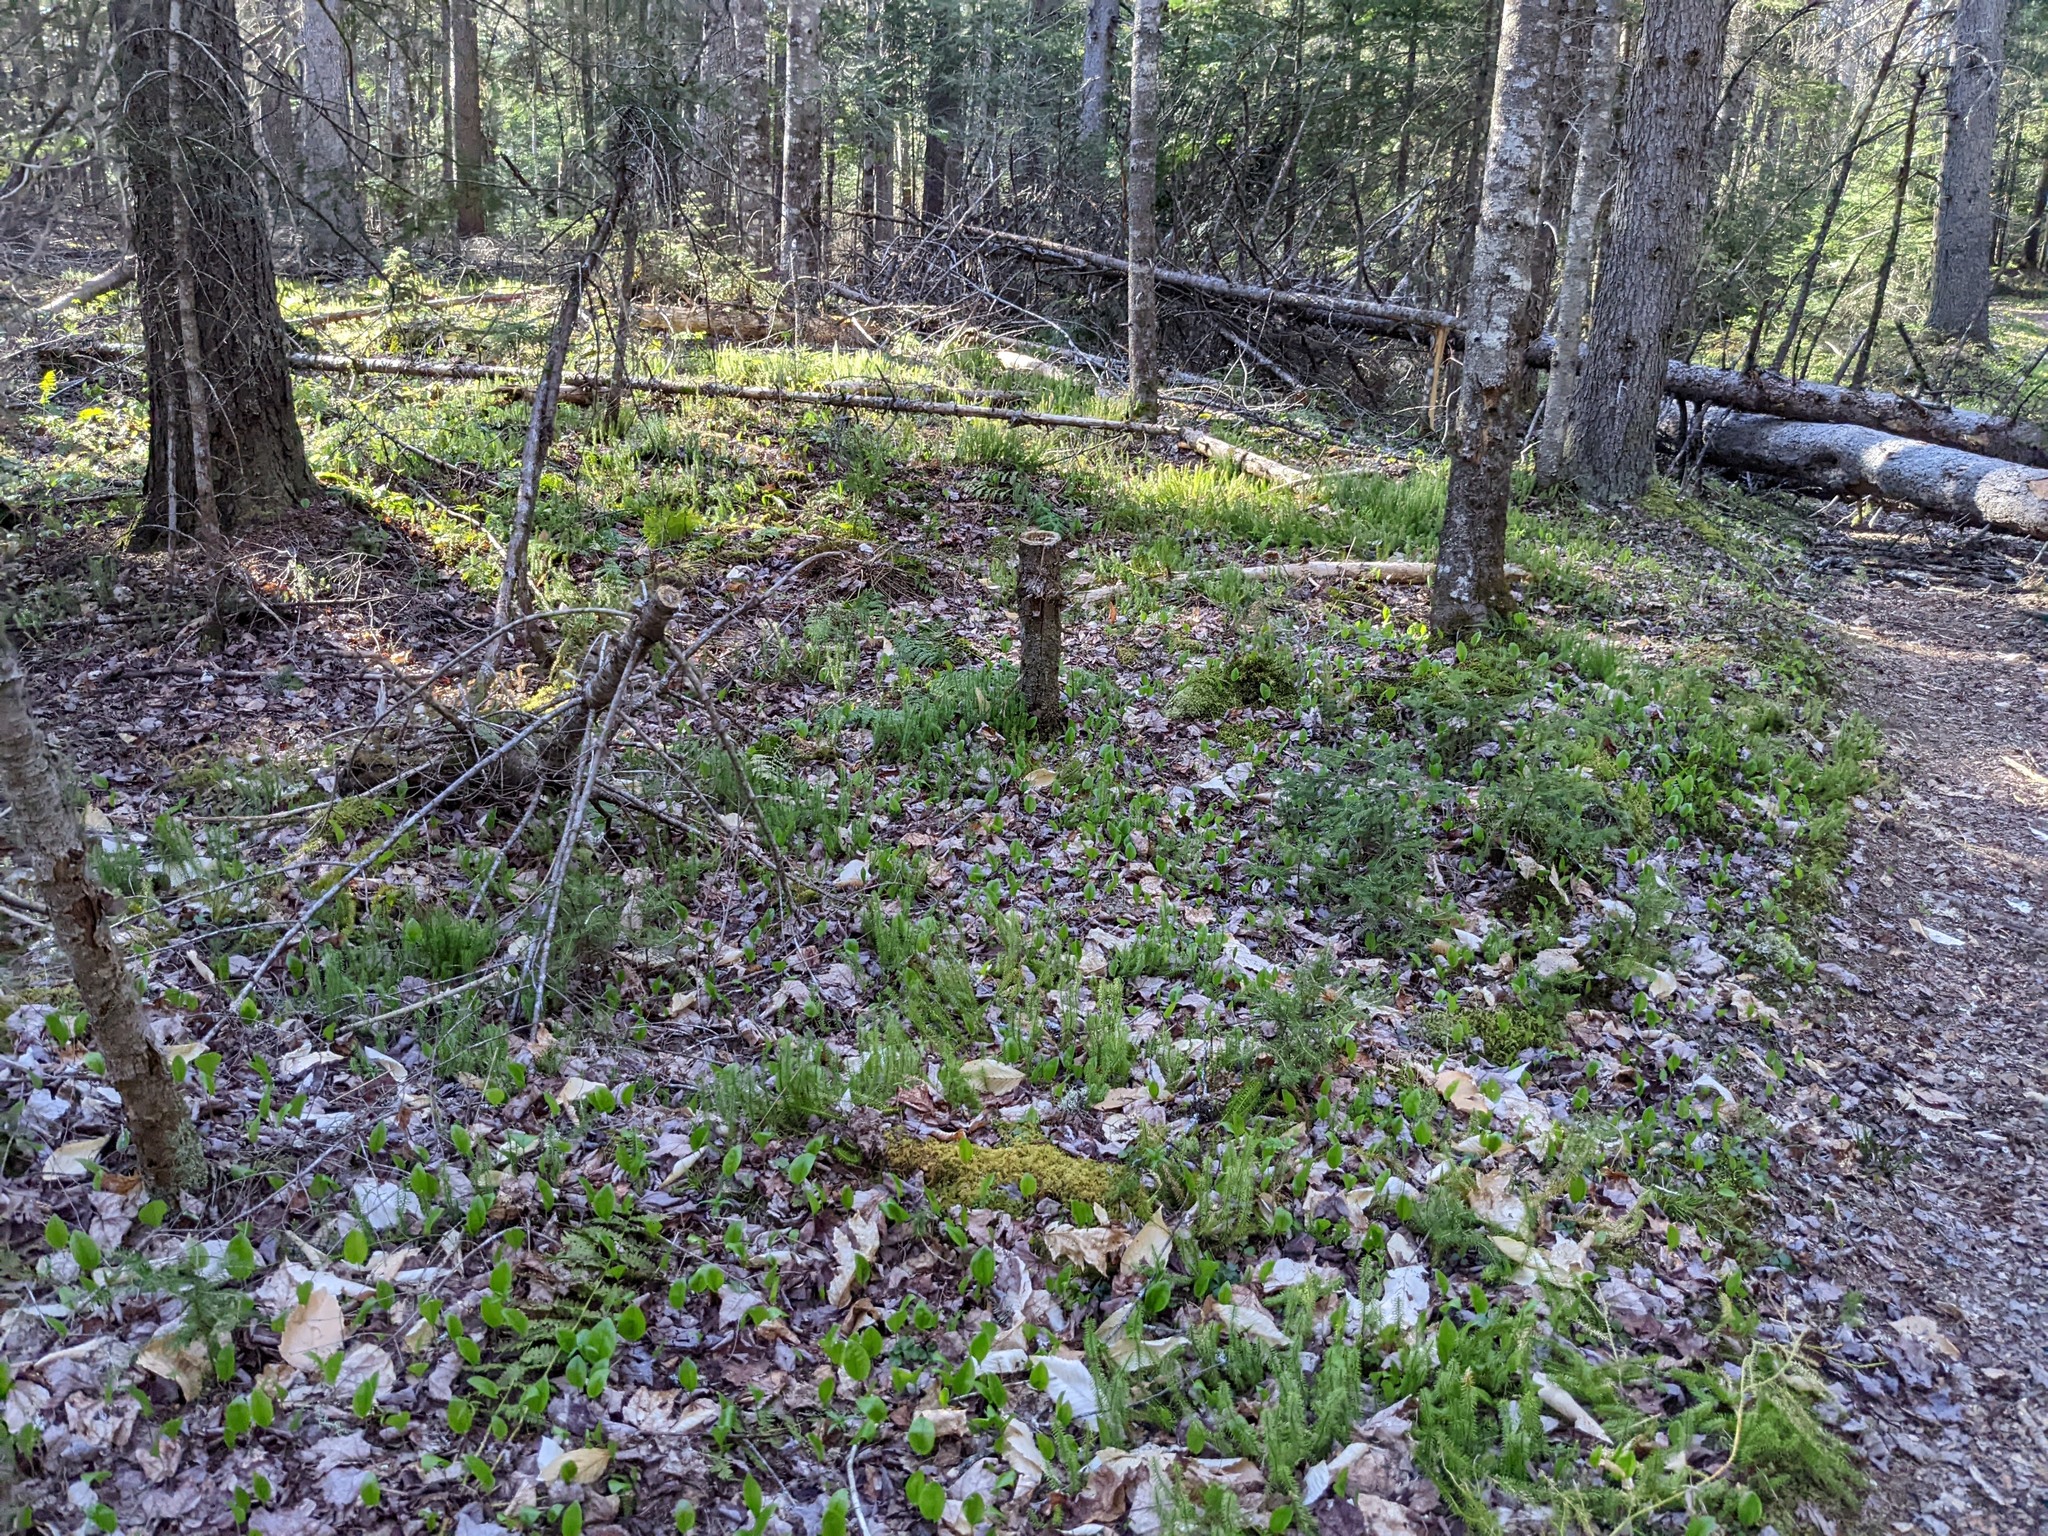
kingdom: Plantae
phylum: Tracheophyta
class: Liliopsida
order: Asparagales
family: Asparagaceae
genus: Maianthemum
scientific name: Maianthemum canadense
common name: False lily-of-the-valley
